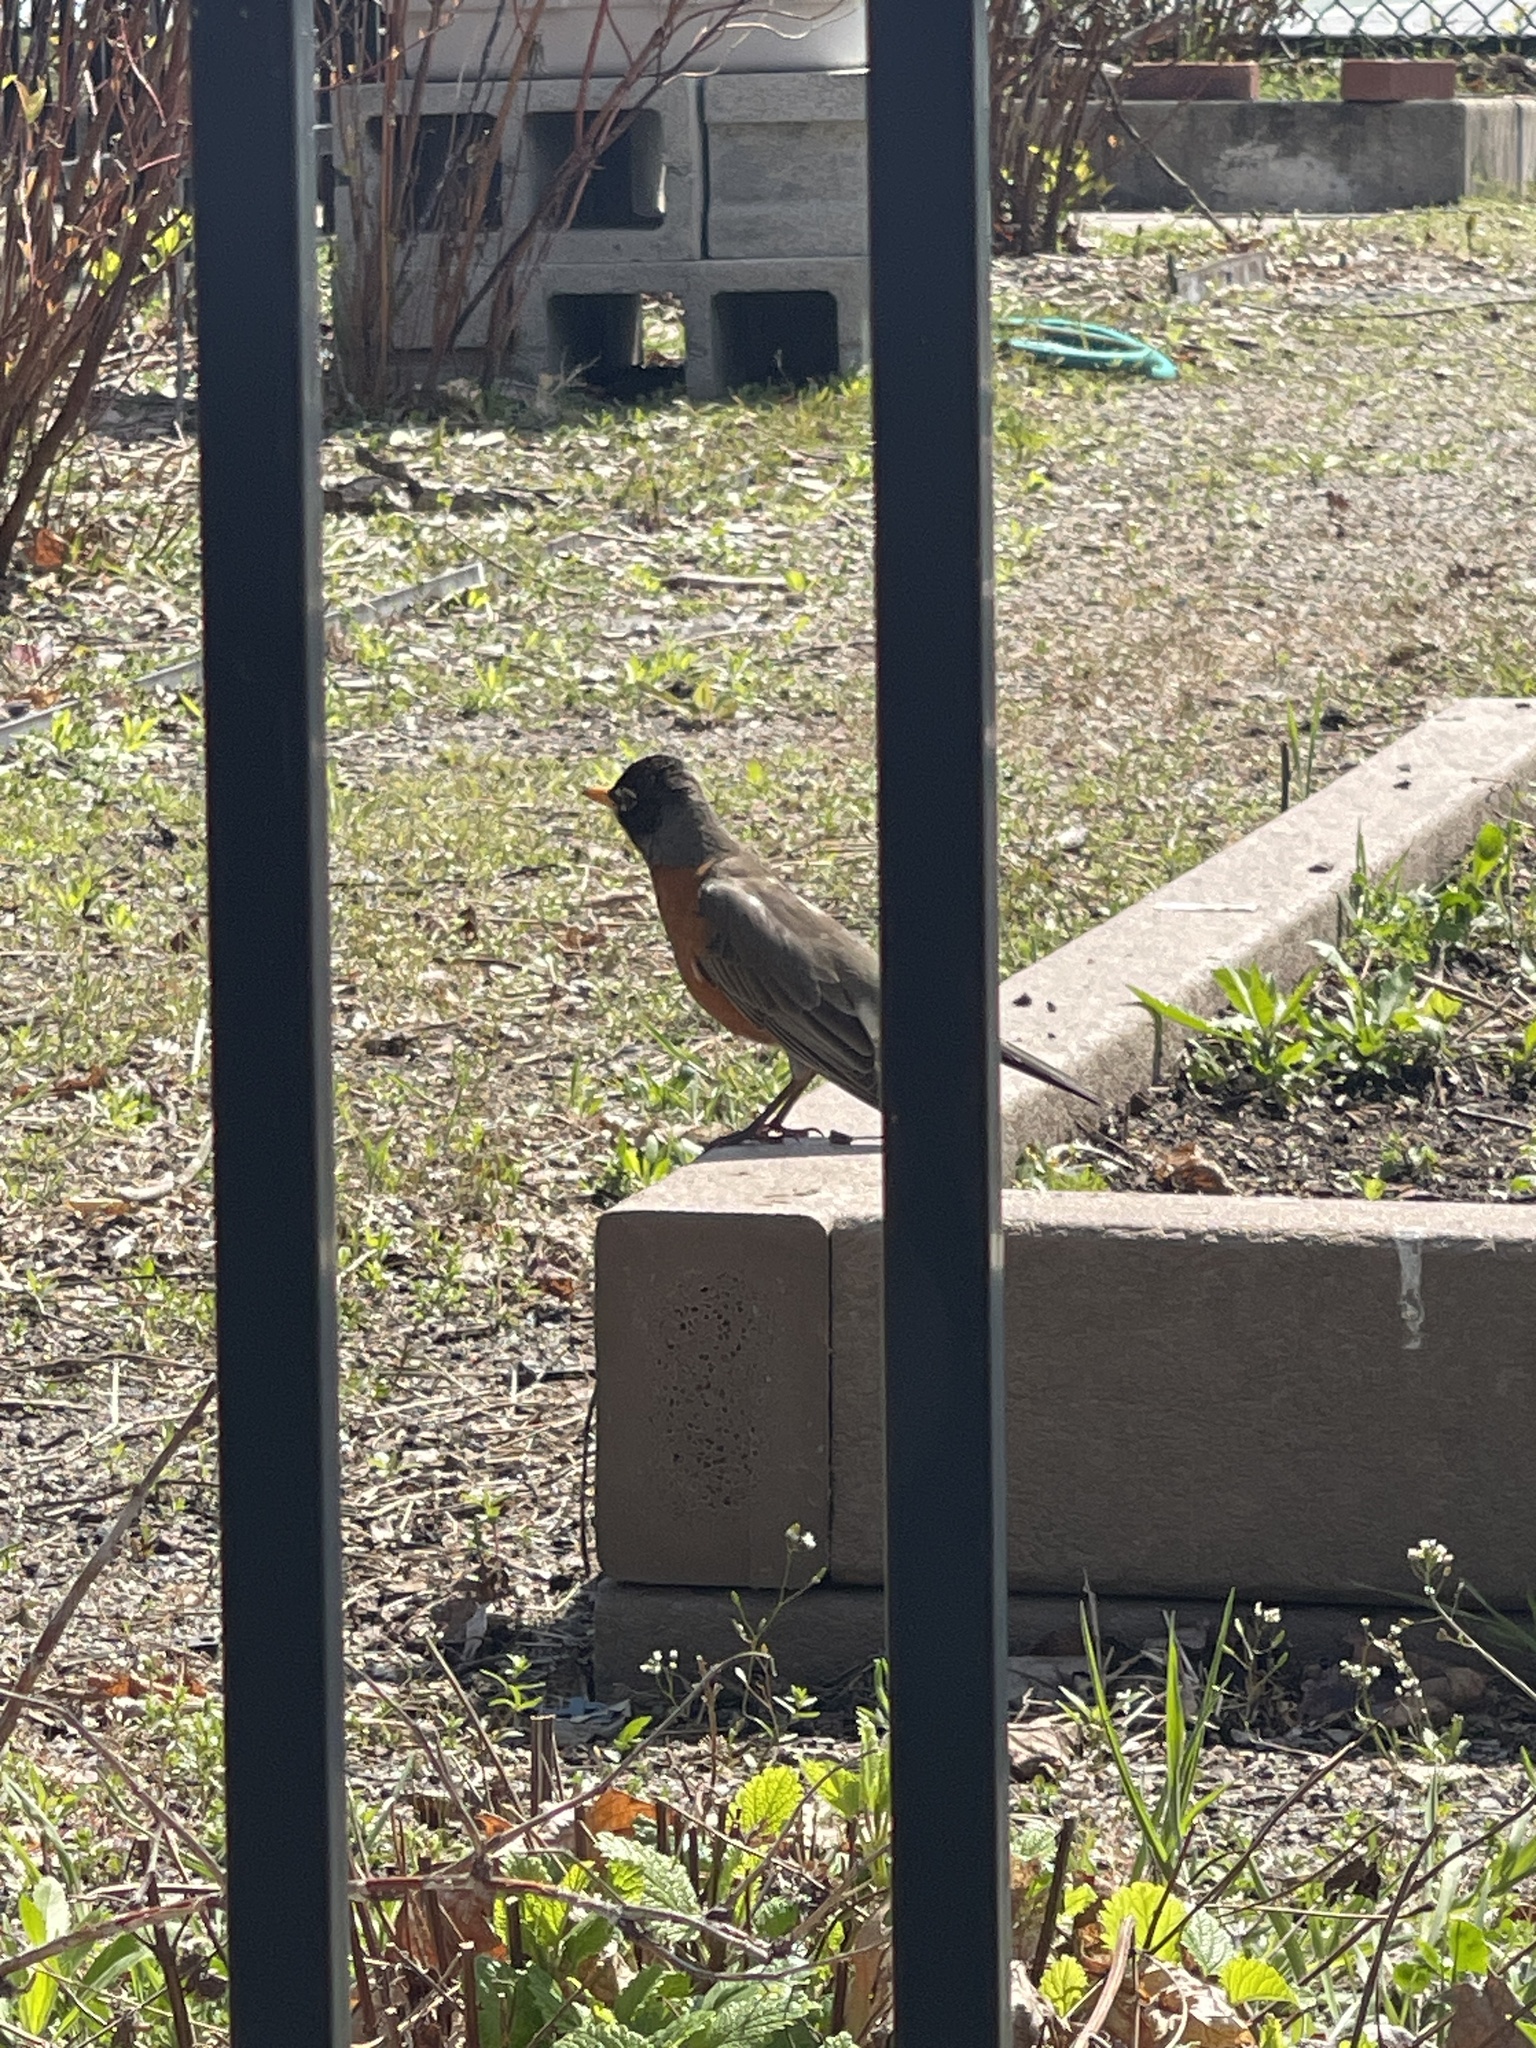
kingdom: Animalia
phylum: Chordata
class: Aves
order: Passeriformes
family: Turdidae
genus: Turdus
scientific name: Turdus migratorius
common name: American robin
